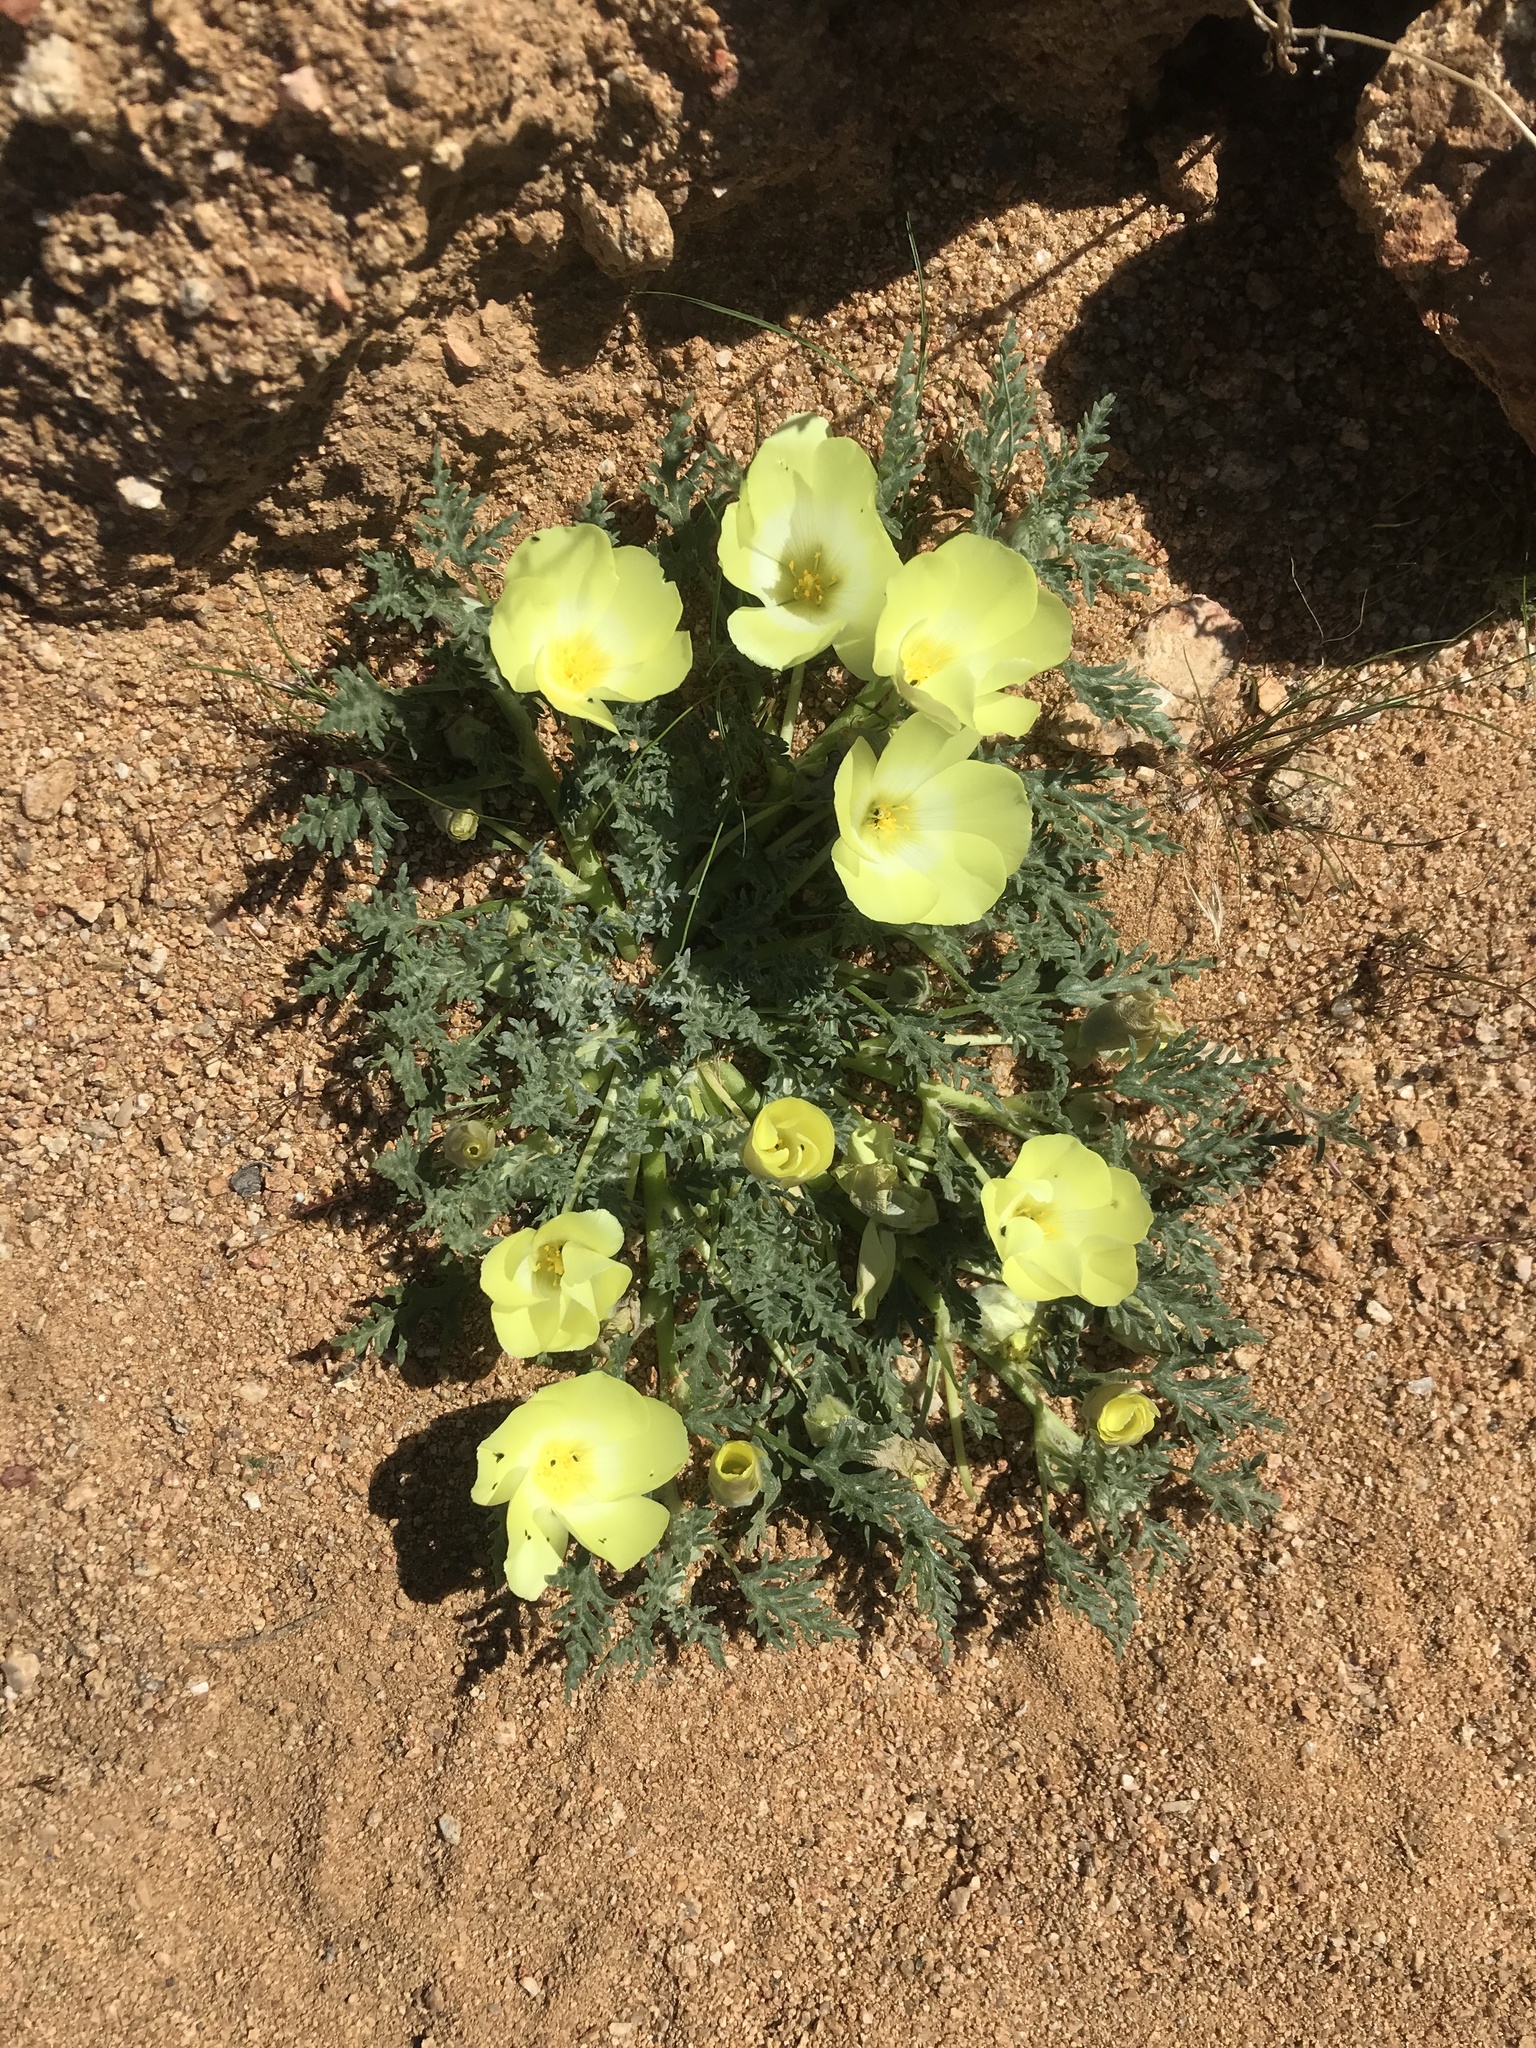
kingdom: Plantae
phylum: Tracheophyta
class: Magnoliopsida
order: Malvales
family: Neuradaceae
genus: Grielum
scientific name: Grielum humifusum
